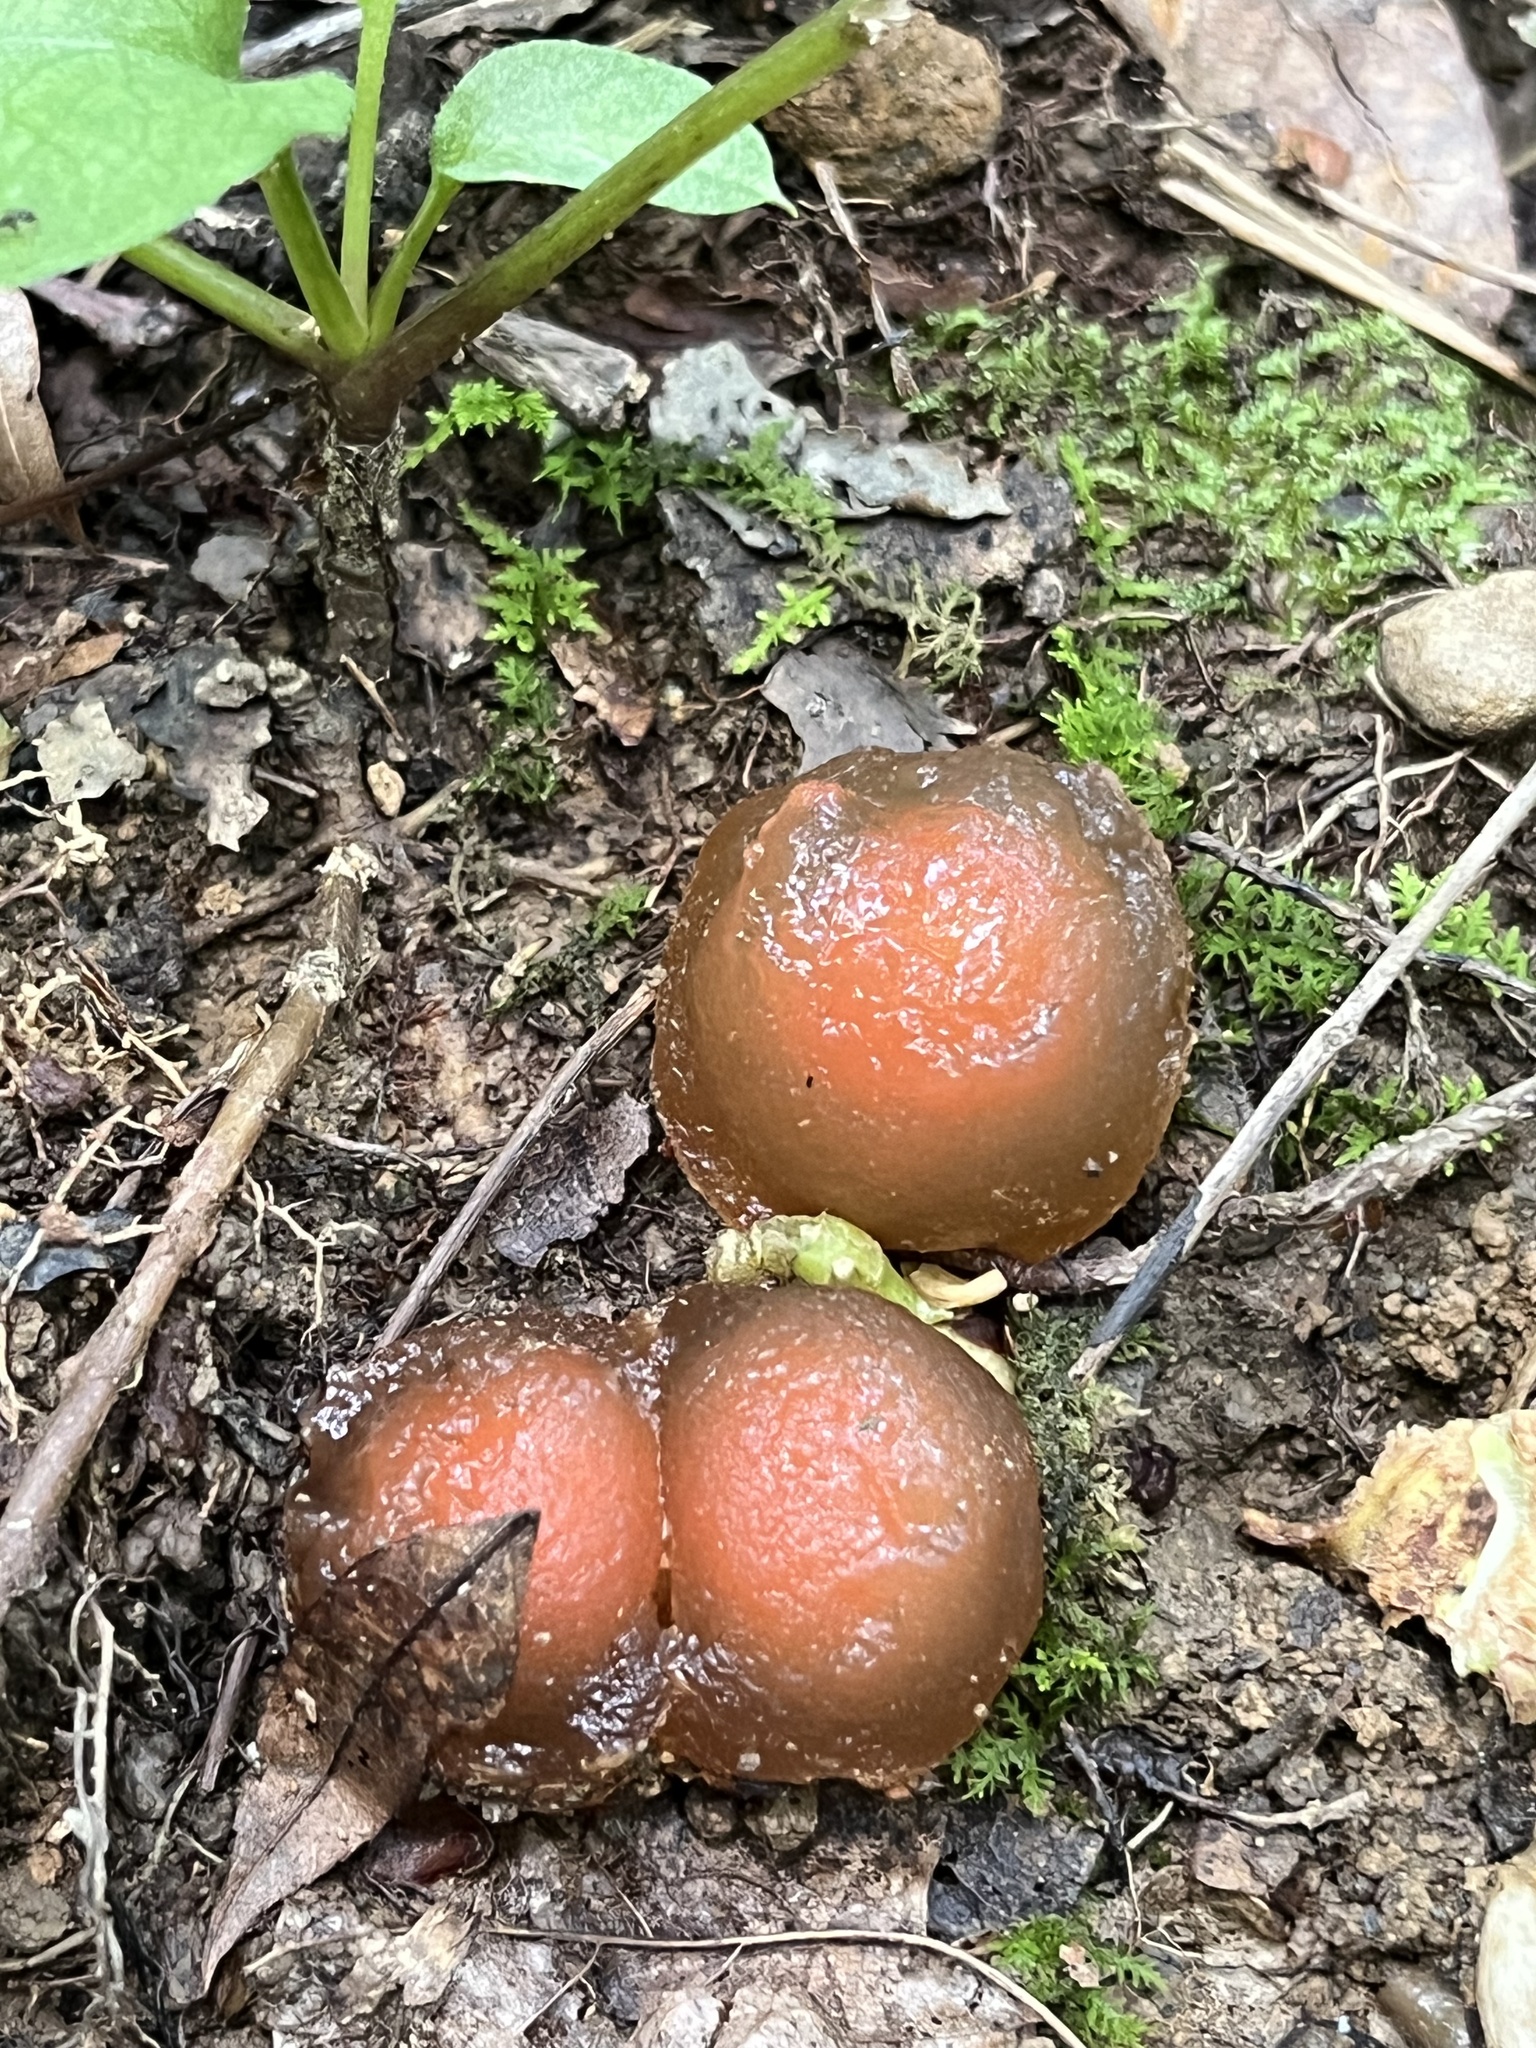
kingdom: Fungi
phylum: Basidiomycota
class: Agaricomycetes
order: Boletales
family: Calostomataceae
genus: Calostoma
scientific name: Calostoma cinnabarinum
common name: Stalked puffball-in-aspic
